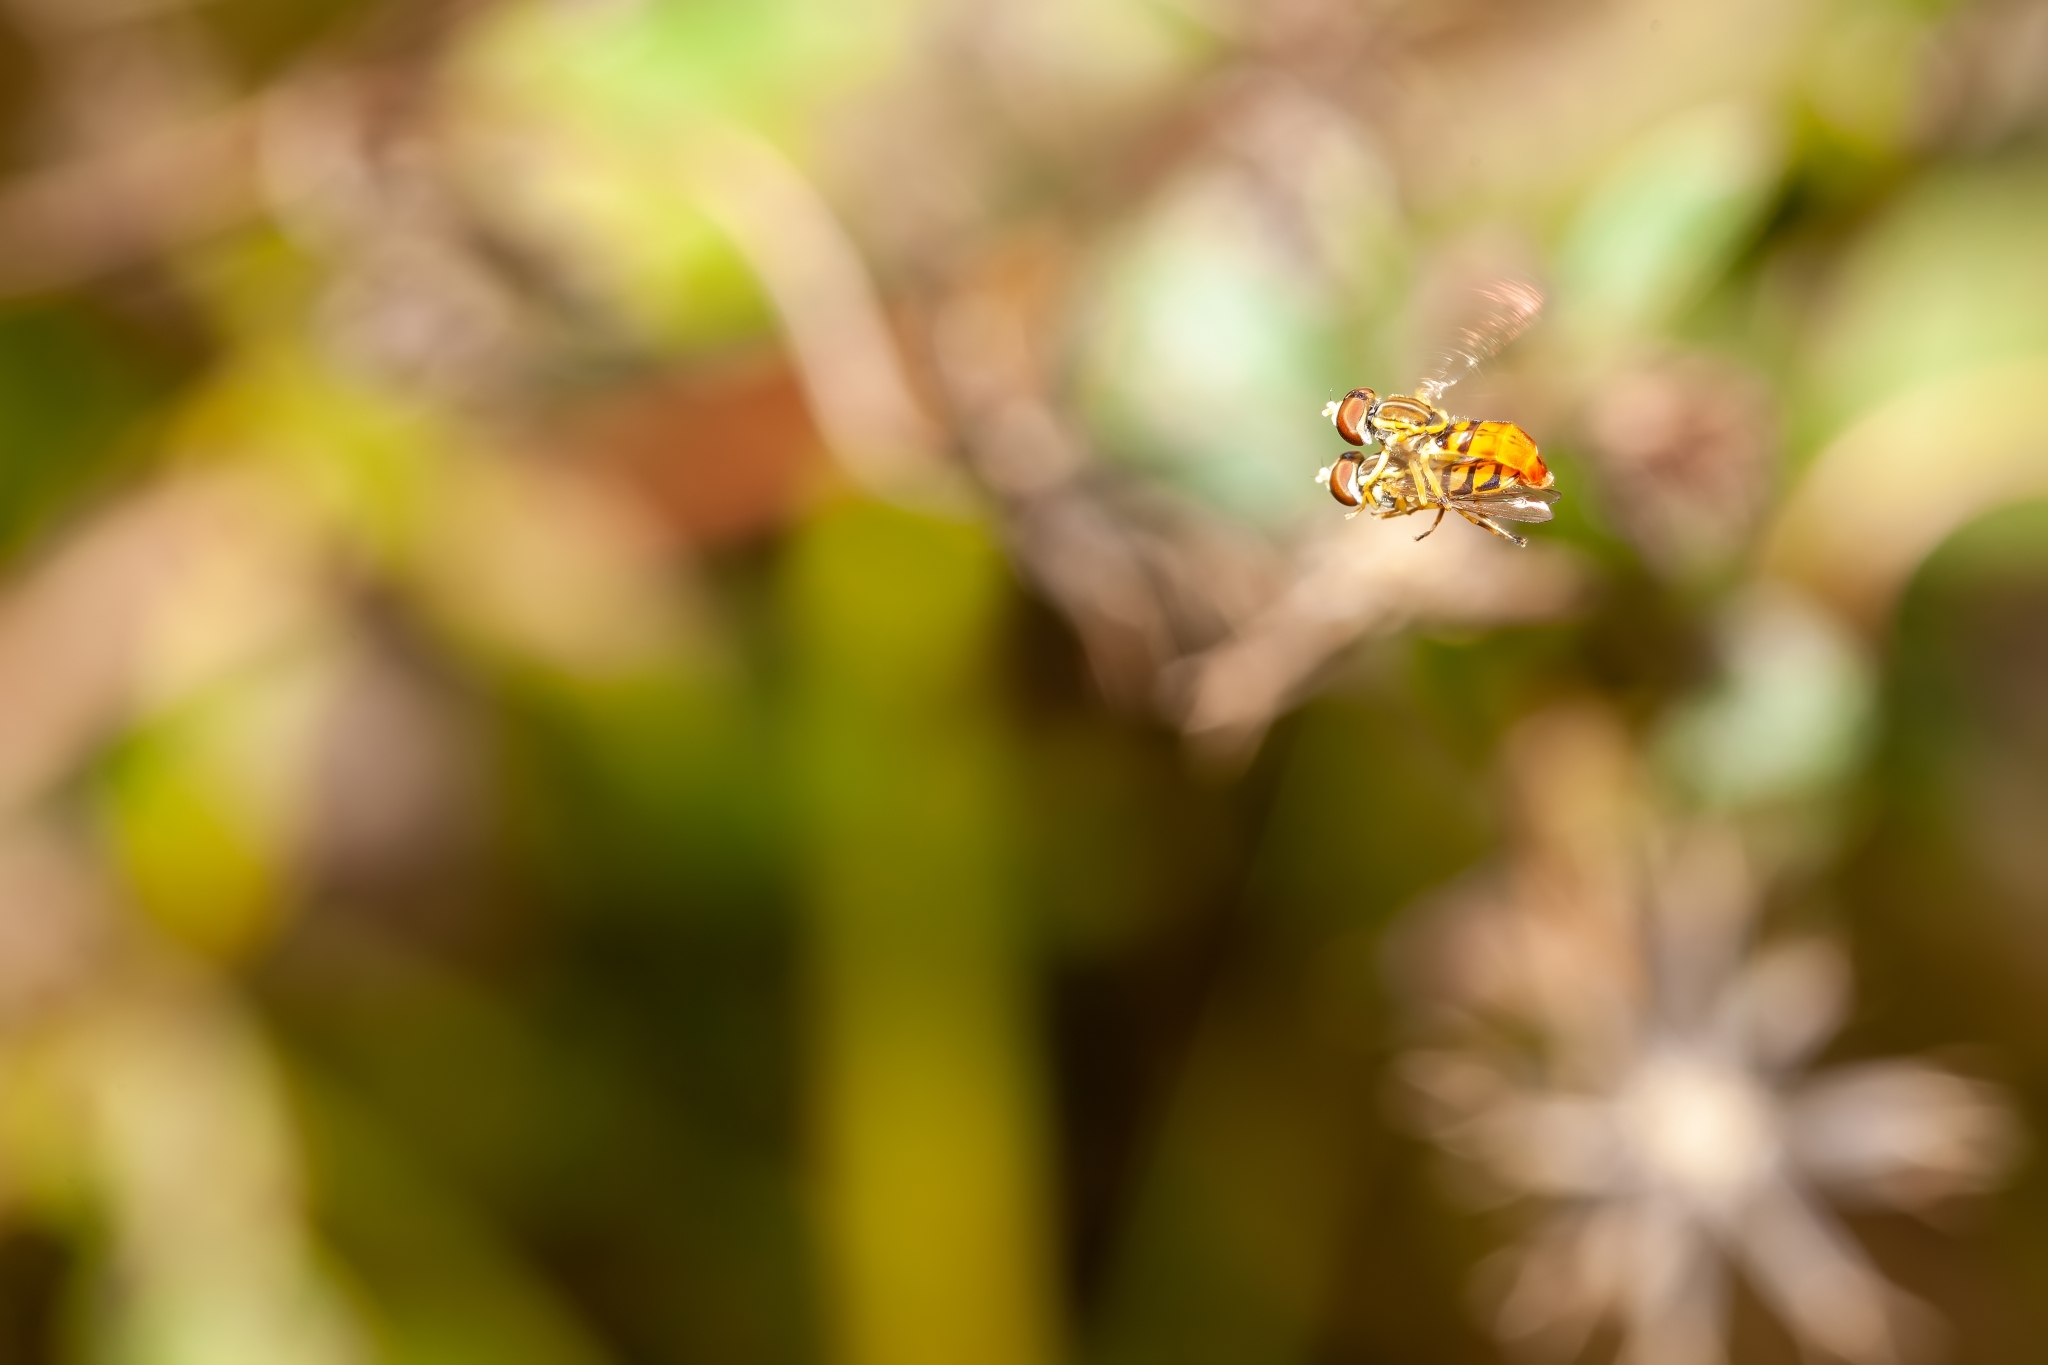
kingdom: Animalia
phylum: Arthropoda
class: Insecta
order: Diptera
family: Syrphidae
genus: Toxomerus
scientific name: Toxomerus floralis
